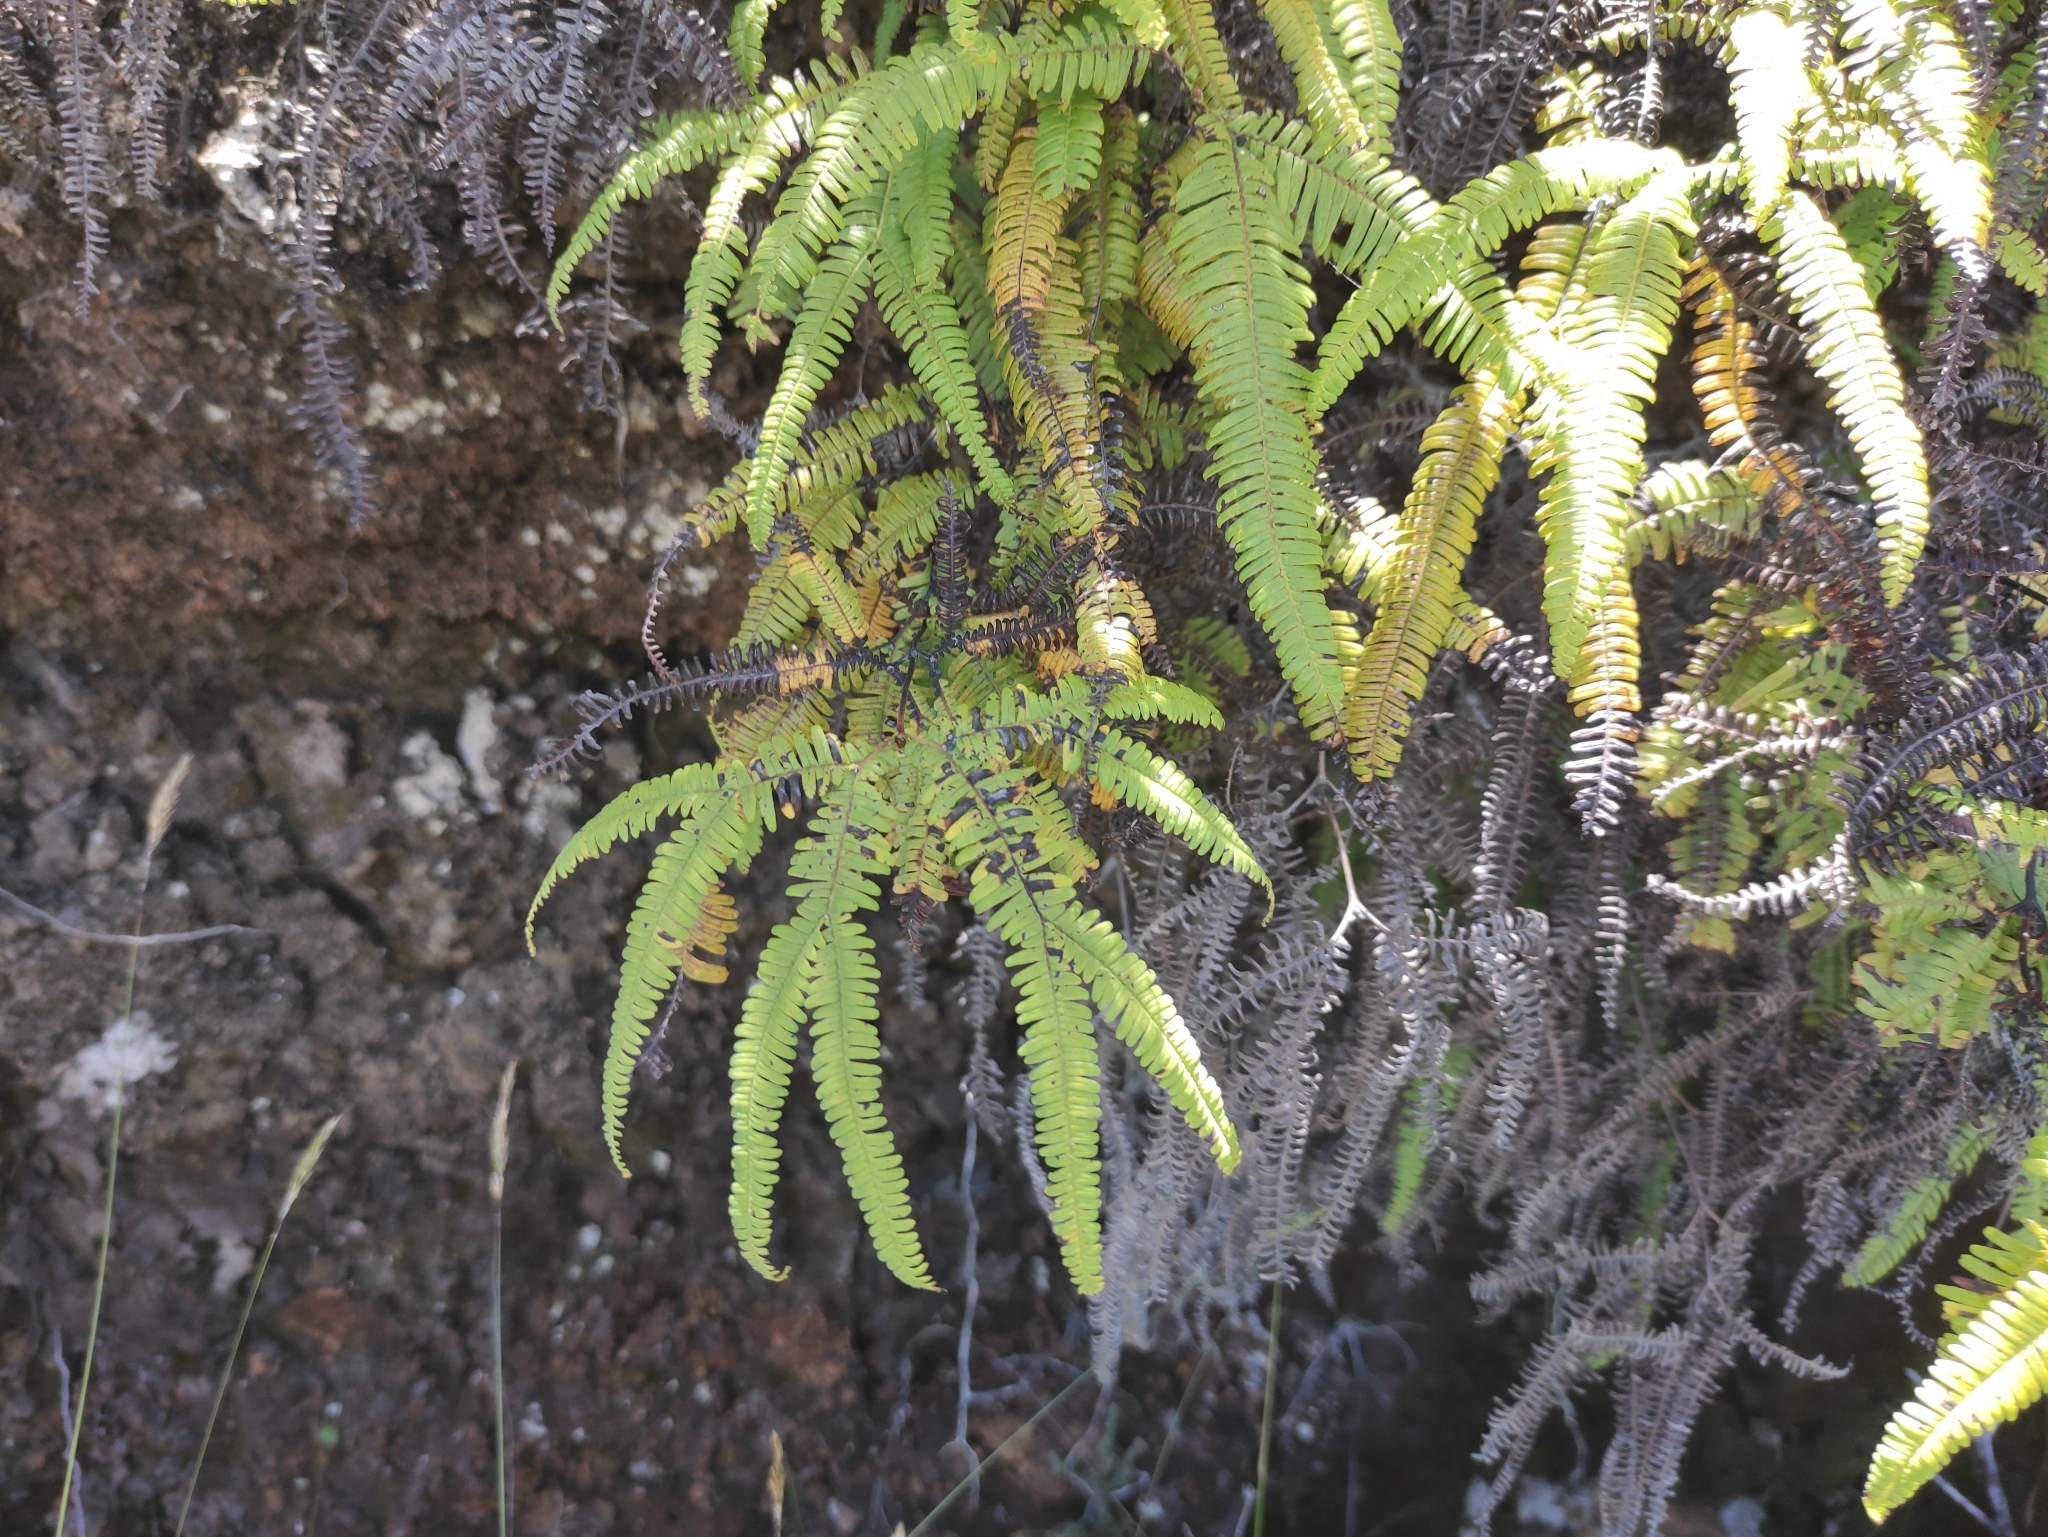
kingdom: Plantae
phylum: Tracheophyta
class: Polypodiopsida
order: Gleicheniales
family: Gleicheniaceae
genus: Sticherus
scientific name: Sticherus flagellaris
